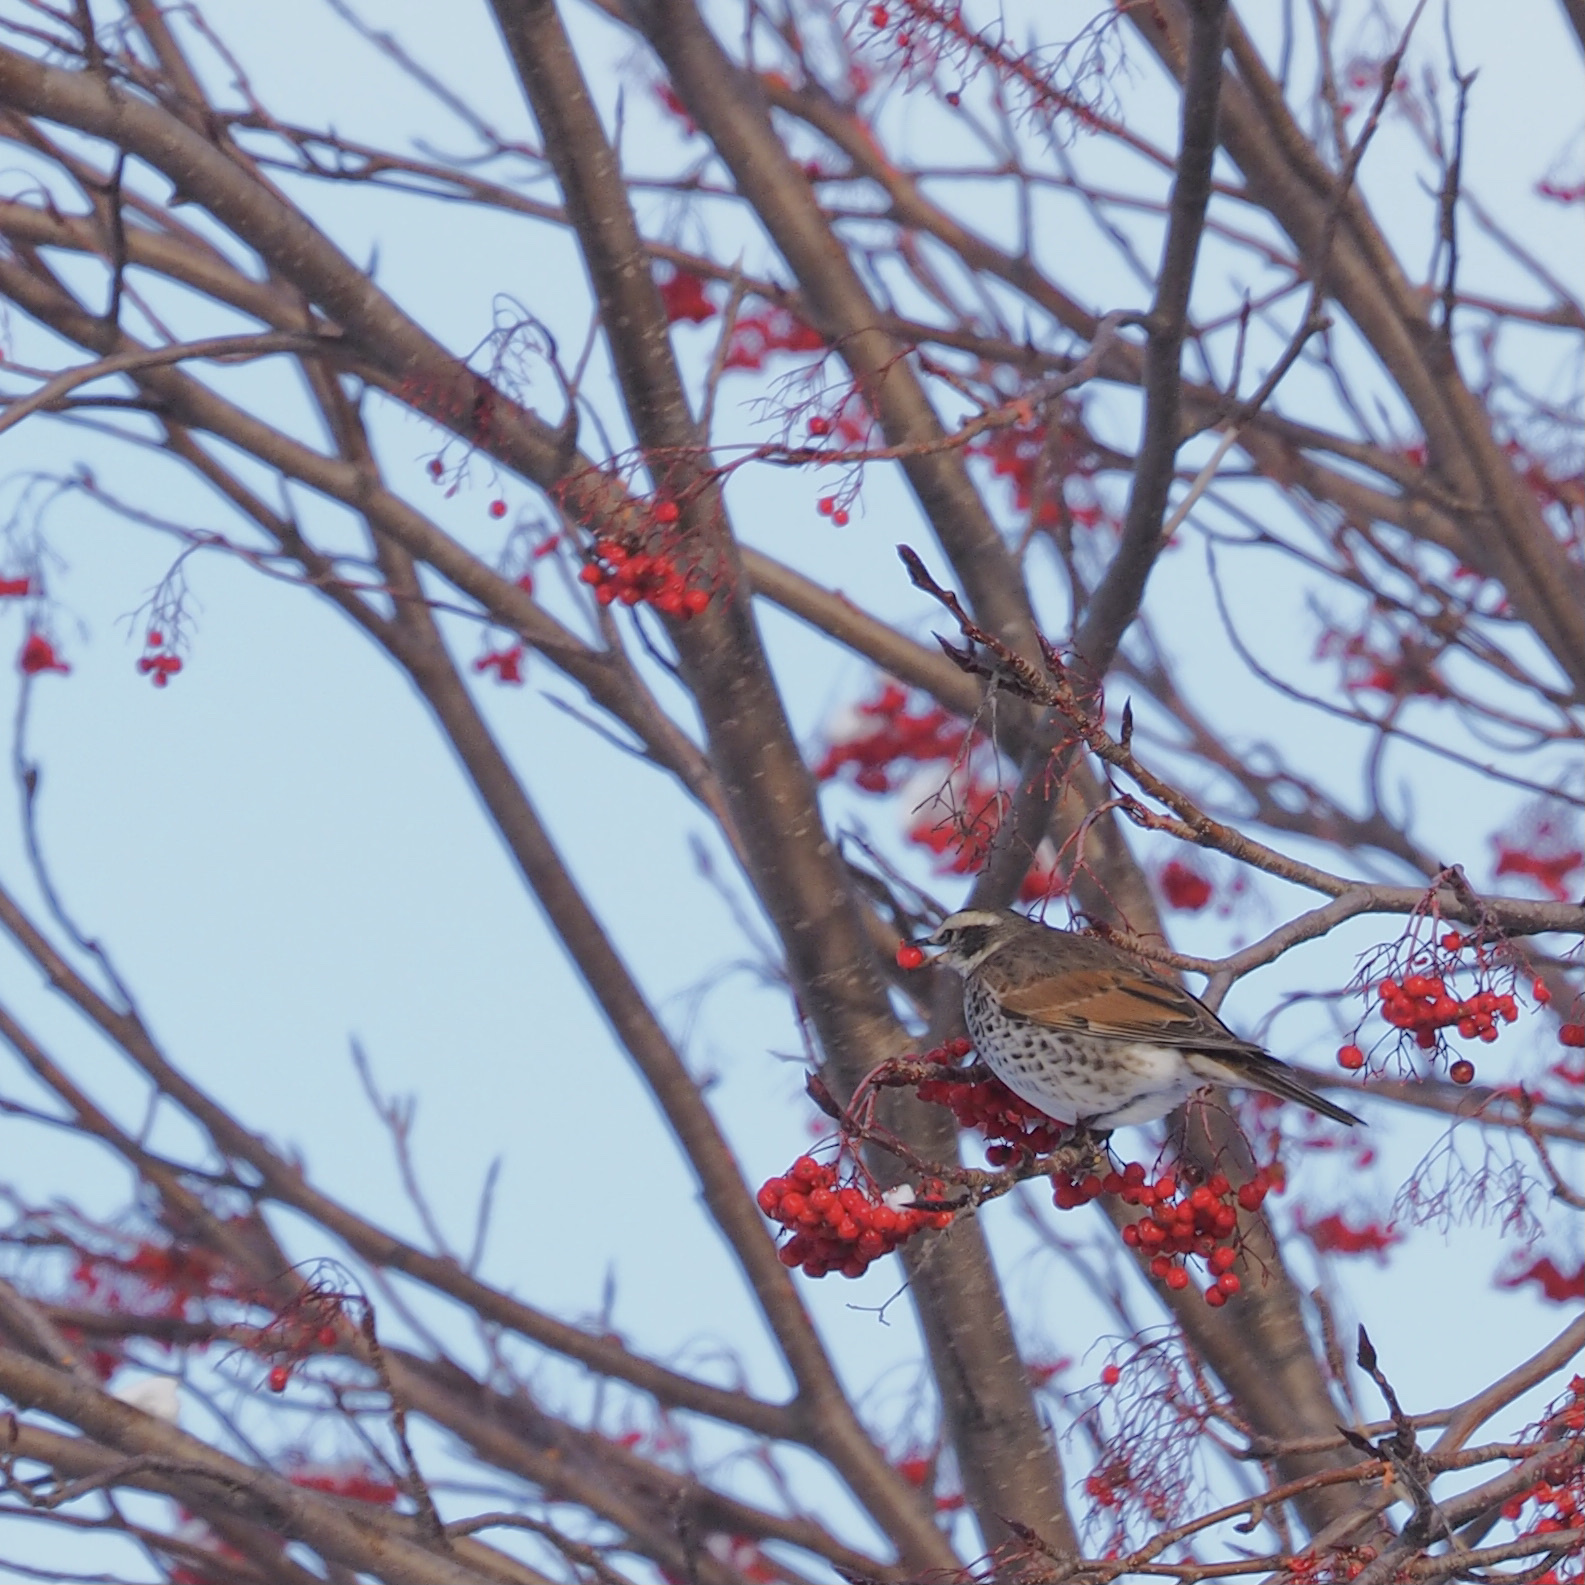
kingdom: Animalia
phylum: Chordata
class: Aves
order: Passeriformes
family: Turdidae
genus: Turdus
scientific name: Turdus eunomus
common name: Dusky thrush
